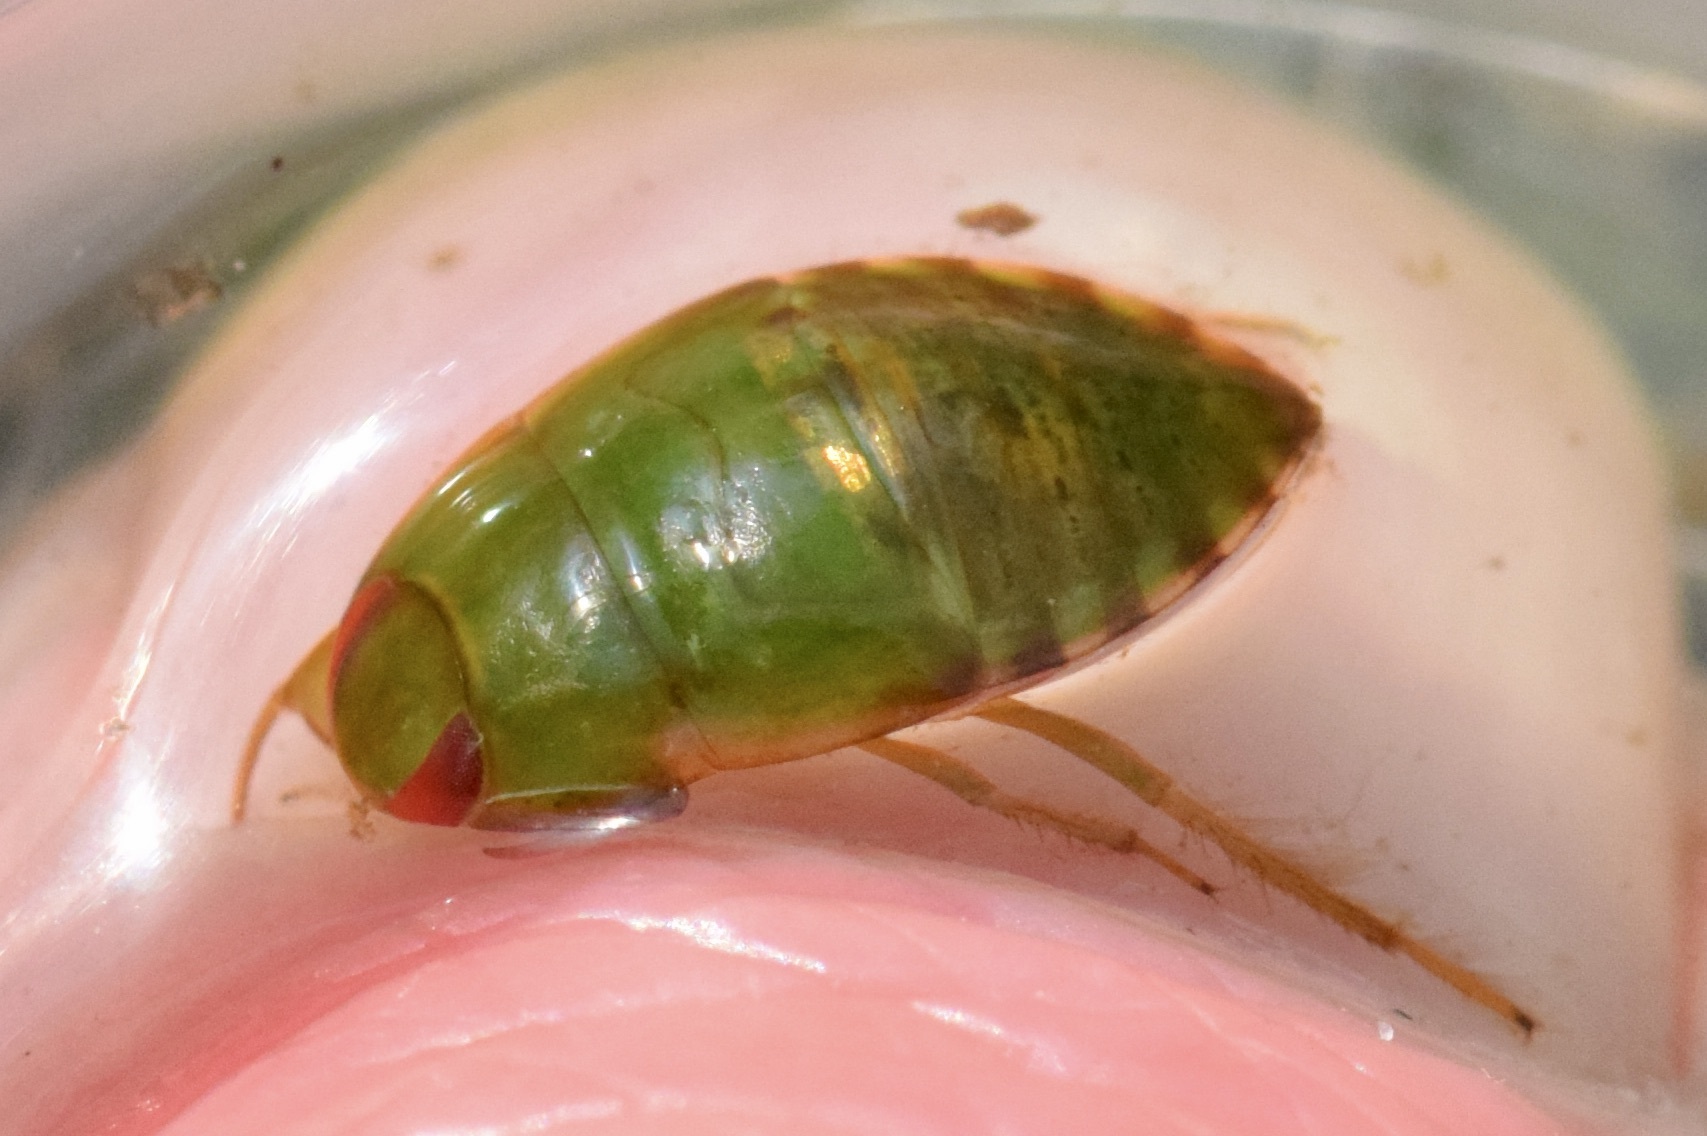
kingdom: Animalia
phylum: Arthropoda
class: Insecta
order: Hemiptera
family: Naucoridae
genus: Pelocoris
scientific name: Pelocoris femoratus
